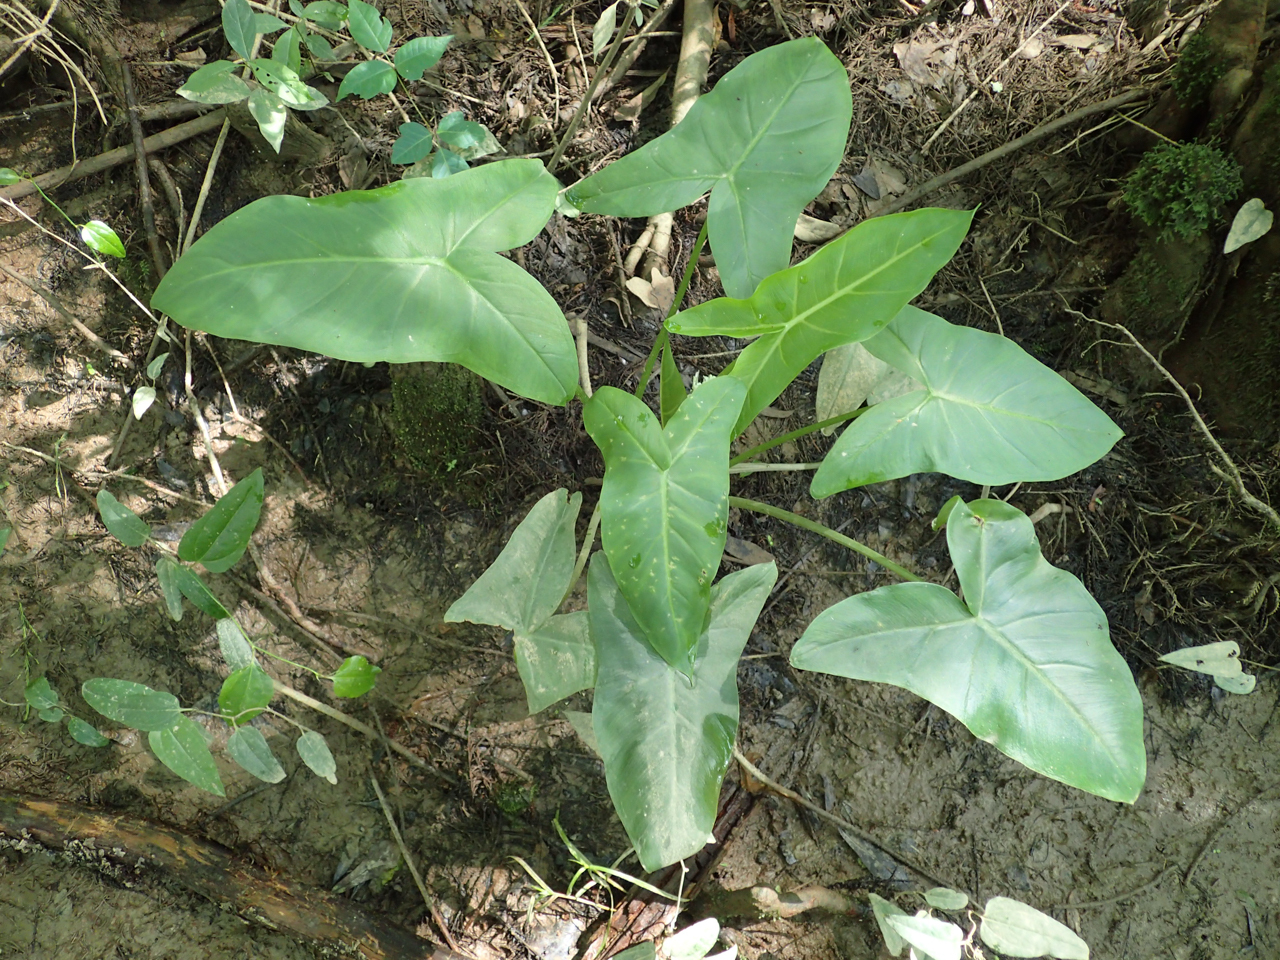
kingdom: Plantae
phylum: Tracheophyta
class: Liliopsida
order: Alismatales
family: Araceae
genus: Peltandra
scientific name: Peltandra virginica
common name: Arrow arum
